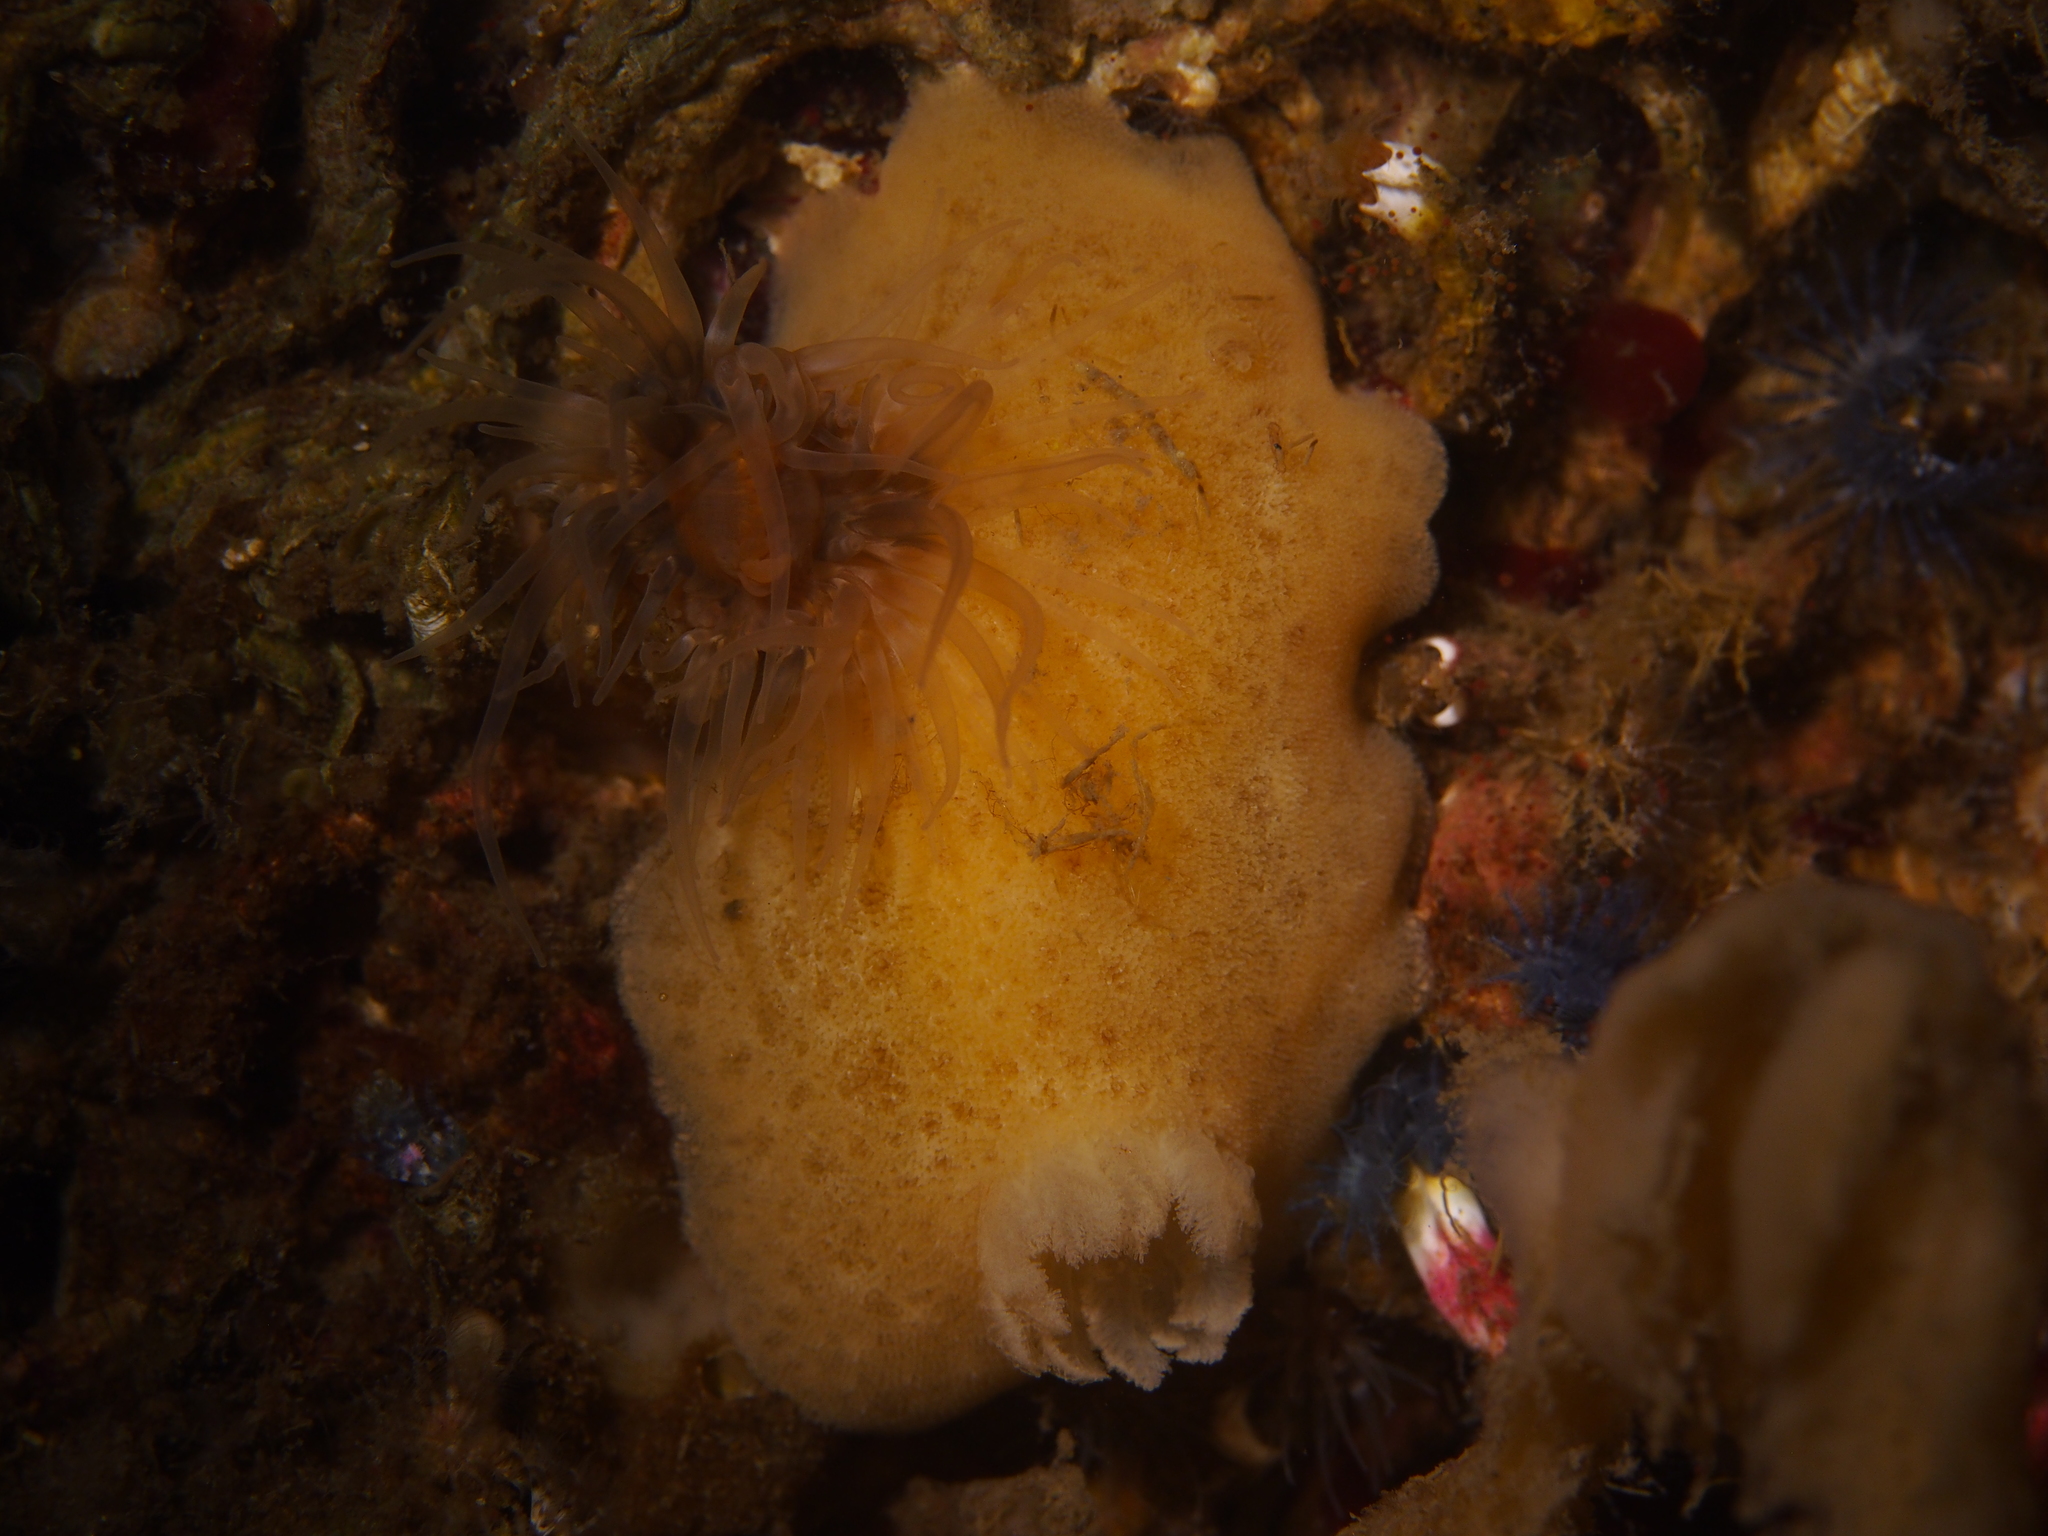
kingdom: Animalia
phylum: Mollusca
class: Gastropoda
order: Nudibranchia
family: Discodorididae
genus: Jorunna
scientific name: Jorunna tomentosa
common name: Grey sea slug
